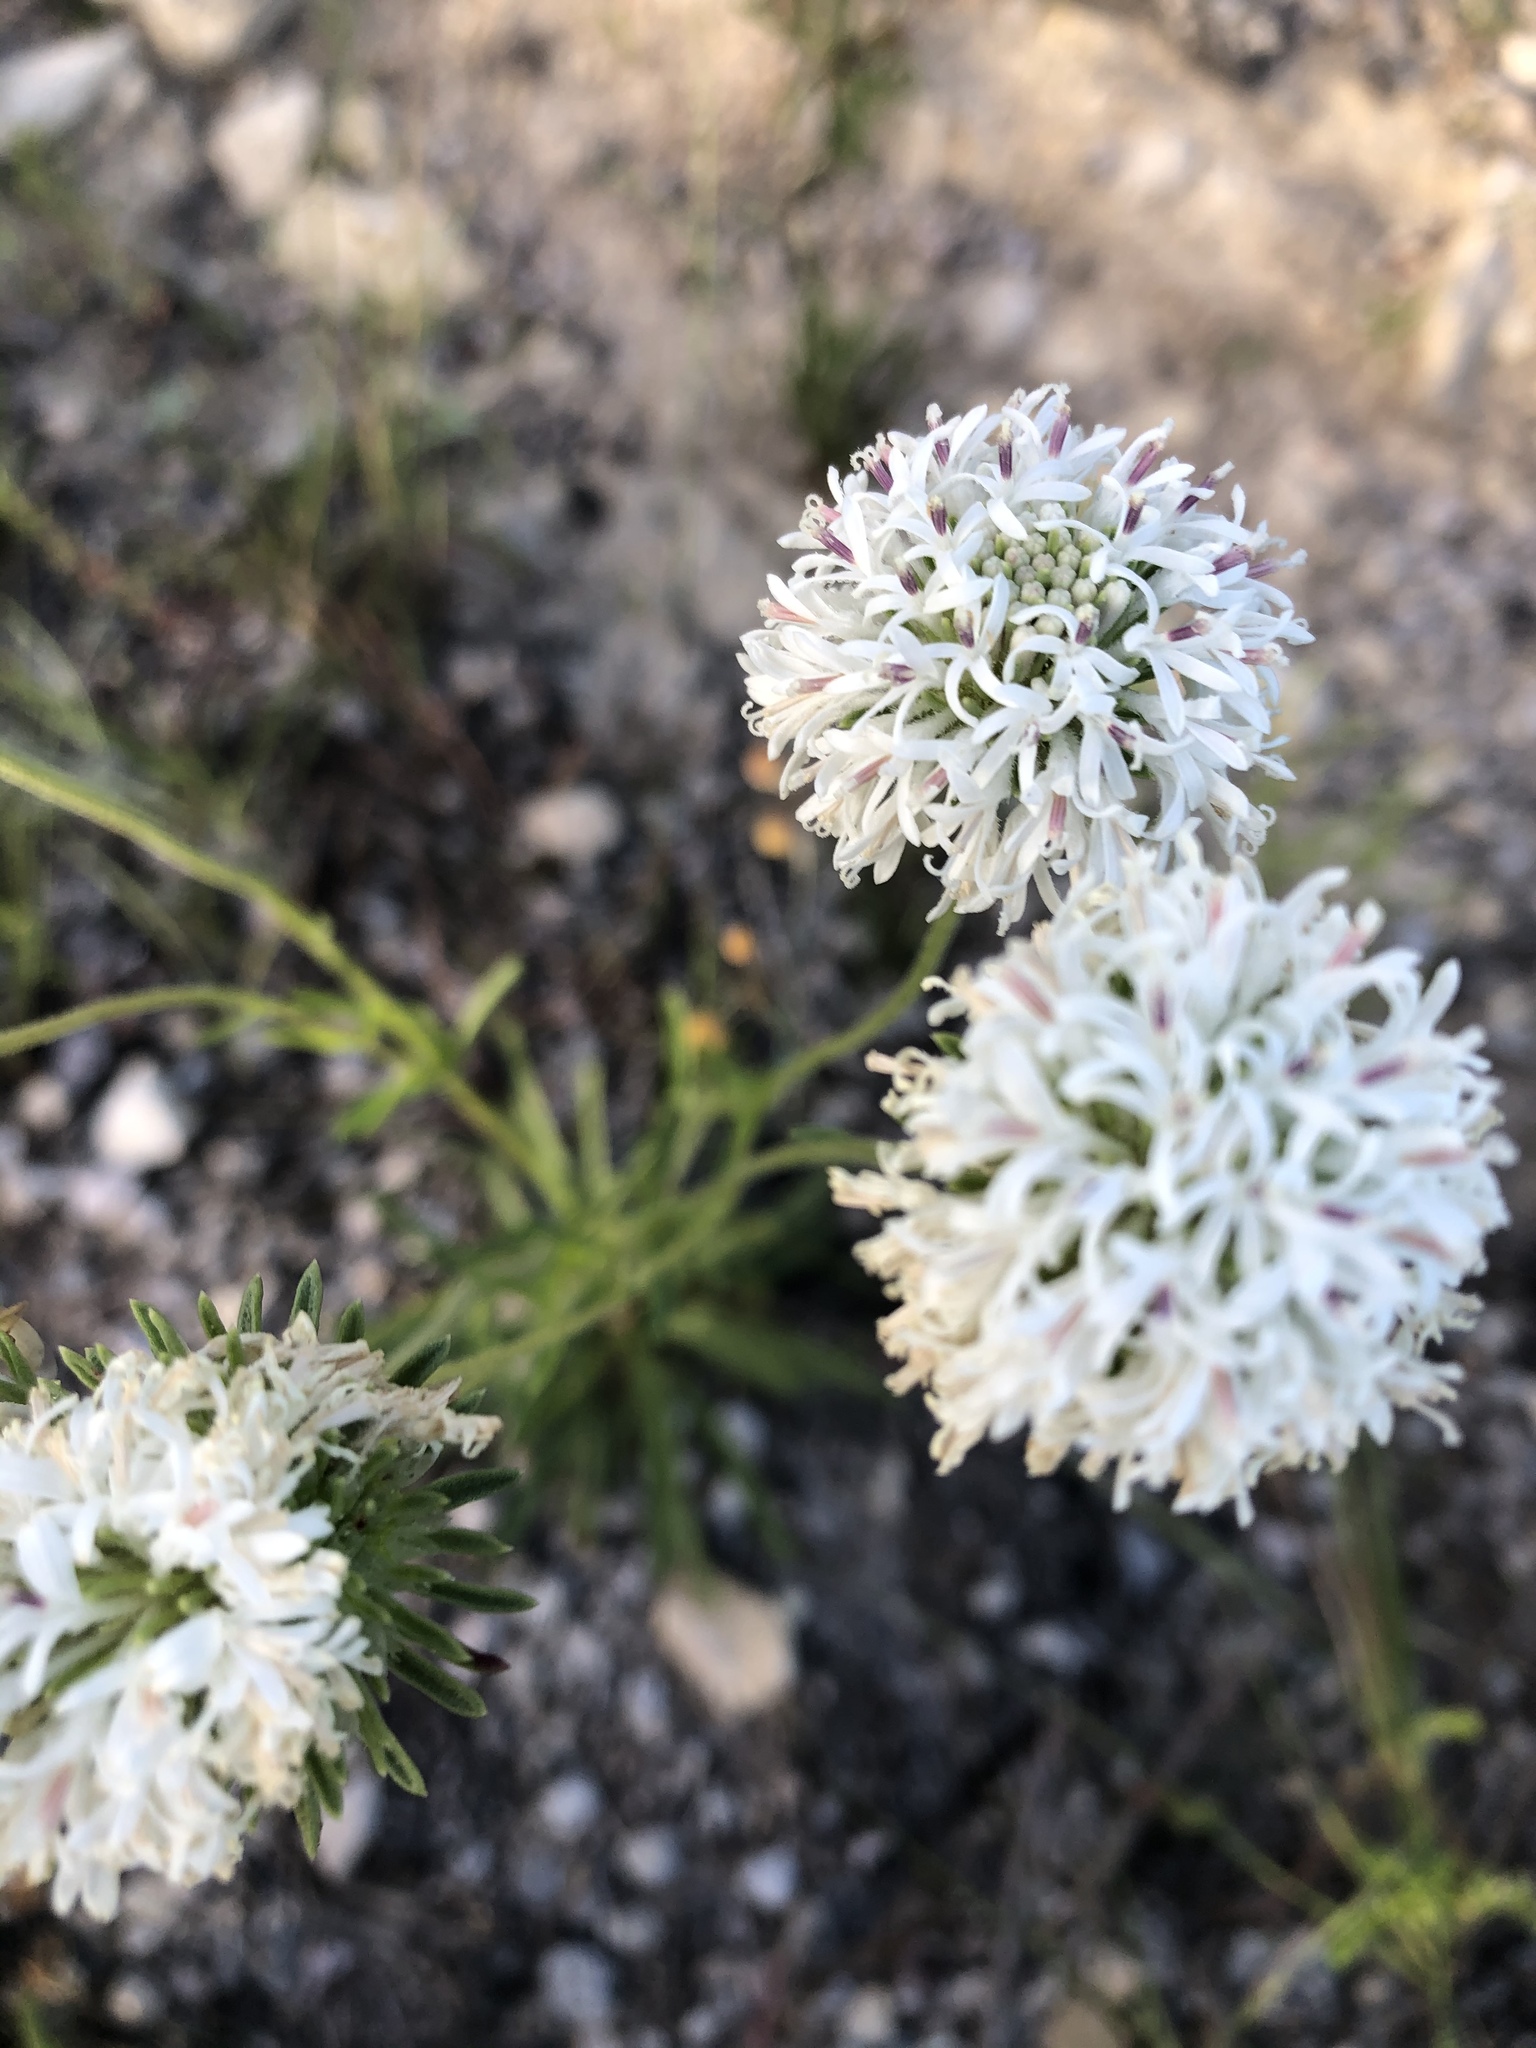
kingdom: Plantae
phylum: Tracheophyta
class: Magnoliopsida
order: Asterales
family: Asteraceae
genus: Marshallia
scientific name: Marshallia caespitosa
